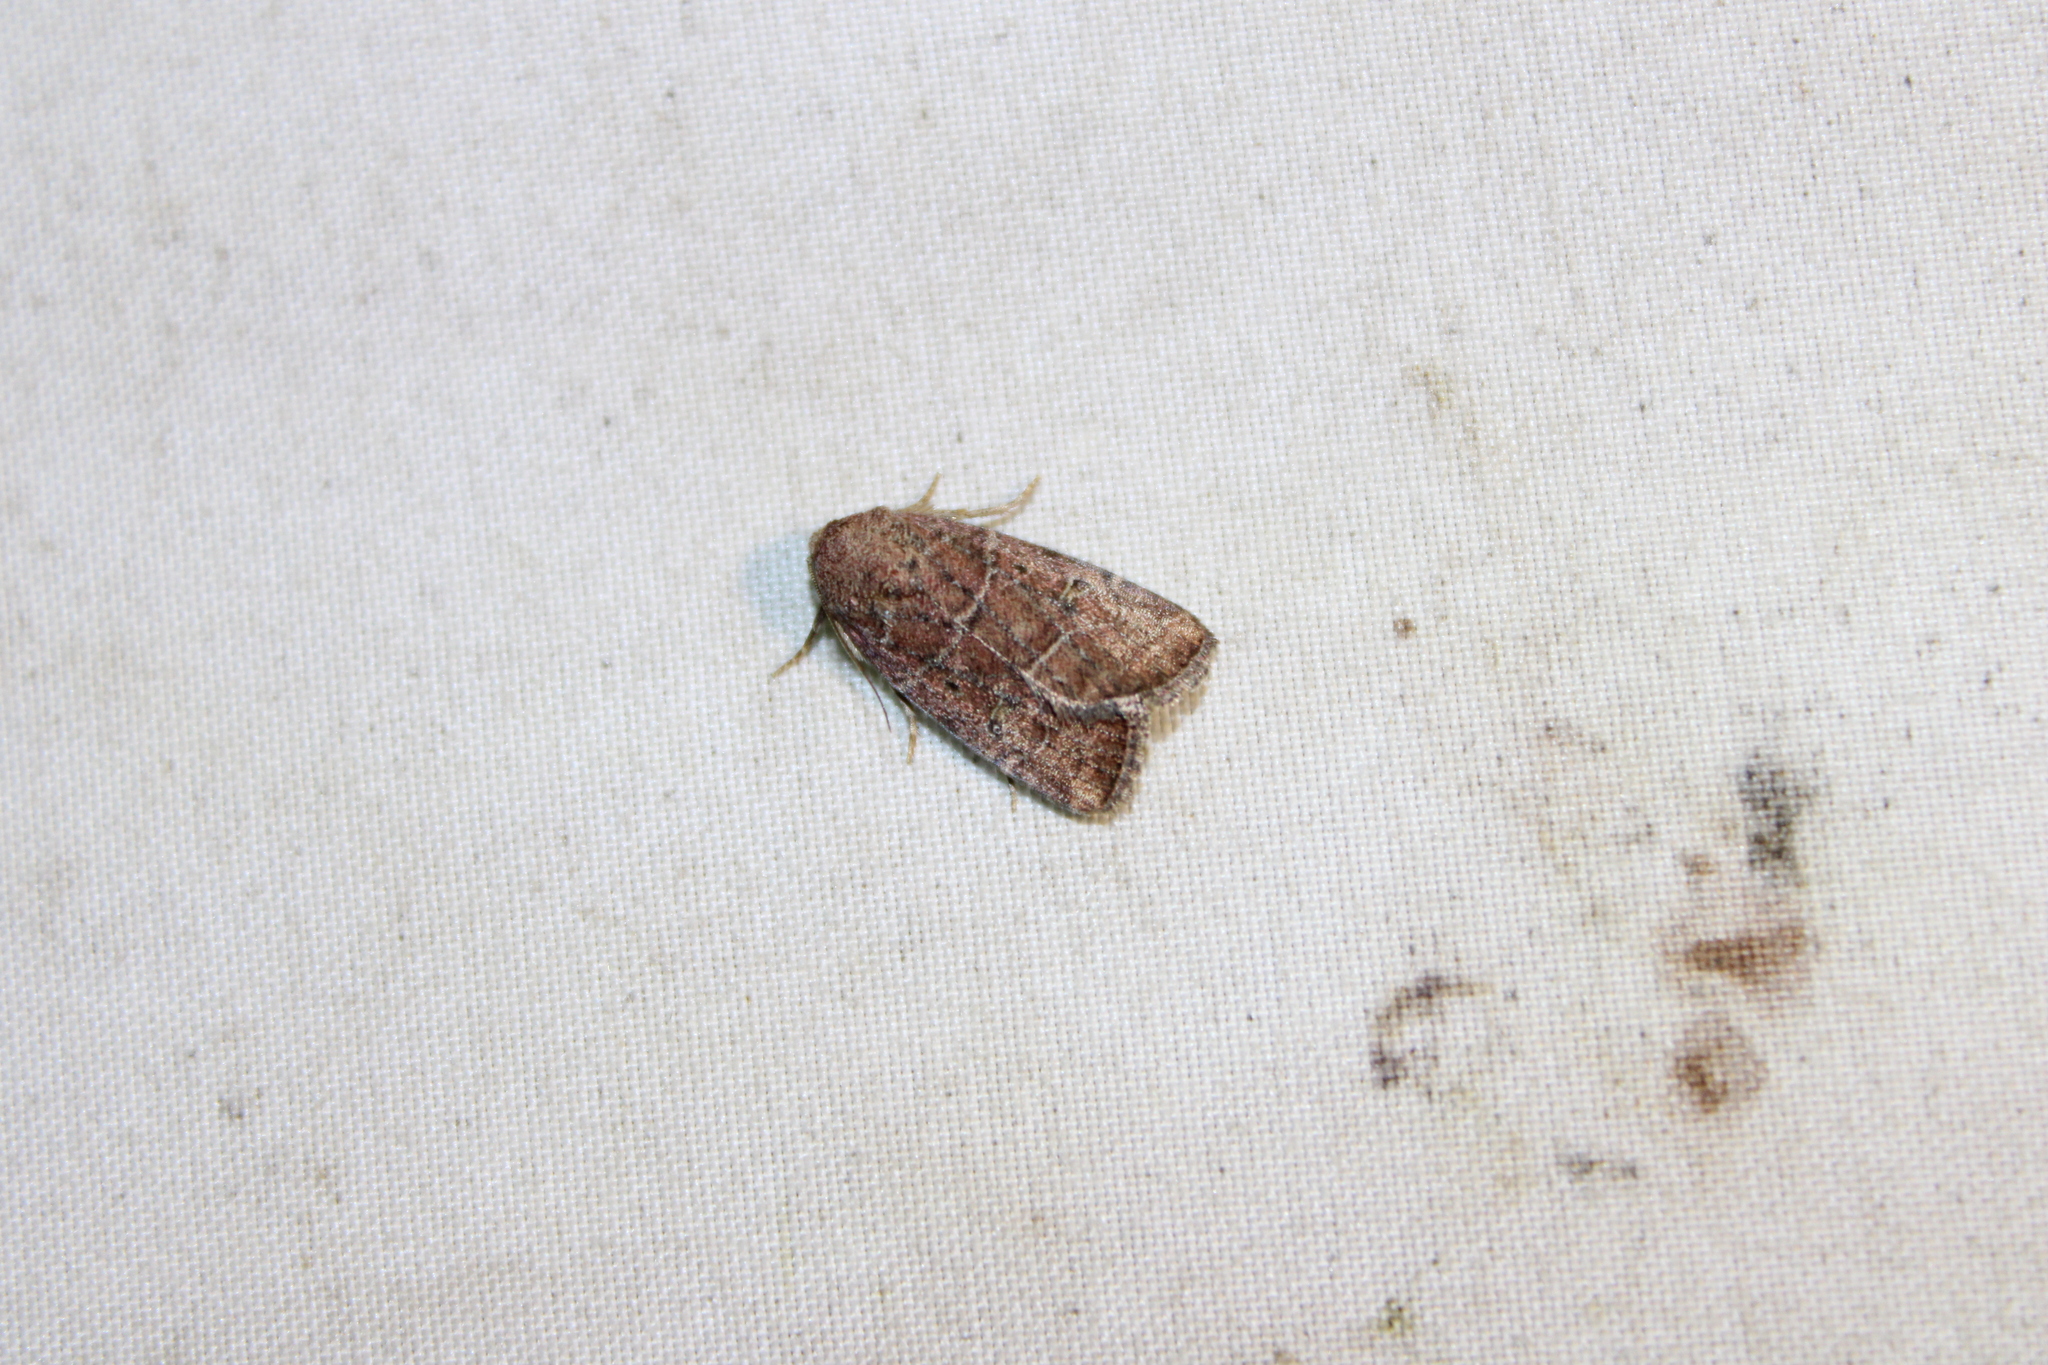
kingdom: Animalia
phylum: Arthropoda
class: Insecta
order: Lepidoptera
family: Noctuidae
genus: Elaphria
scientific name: Elaphria grata
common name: Grateful midget moth
